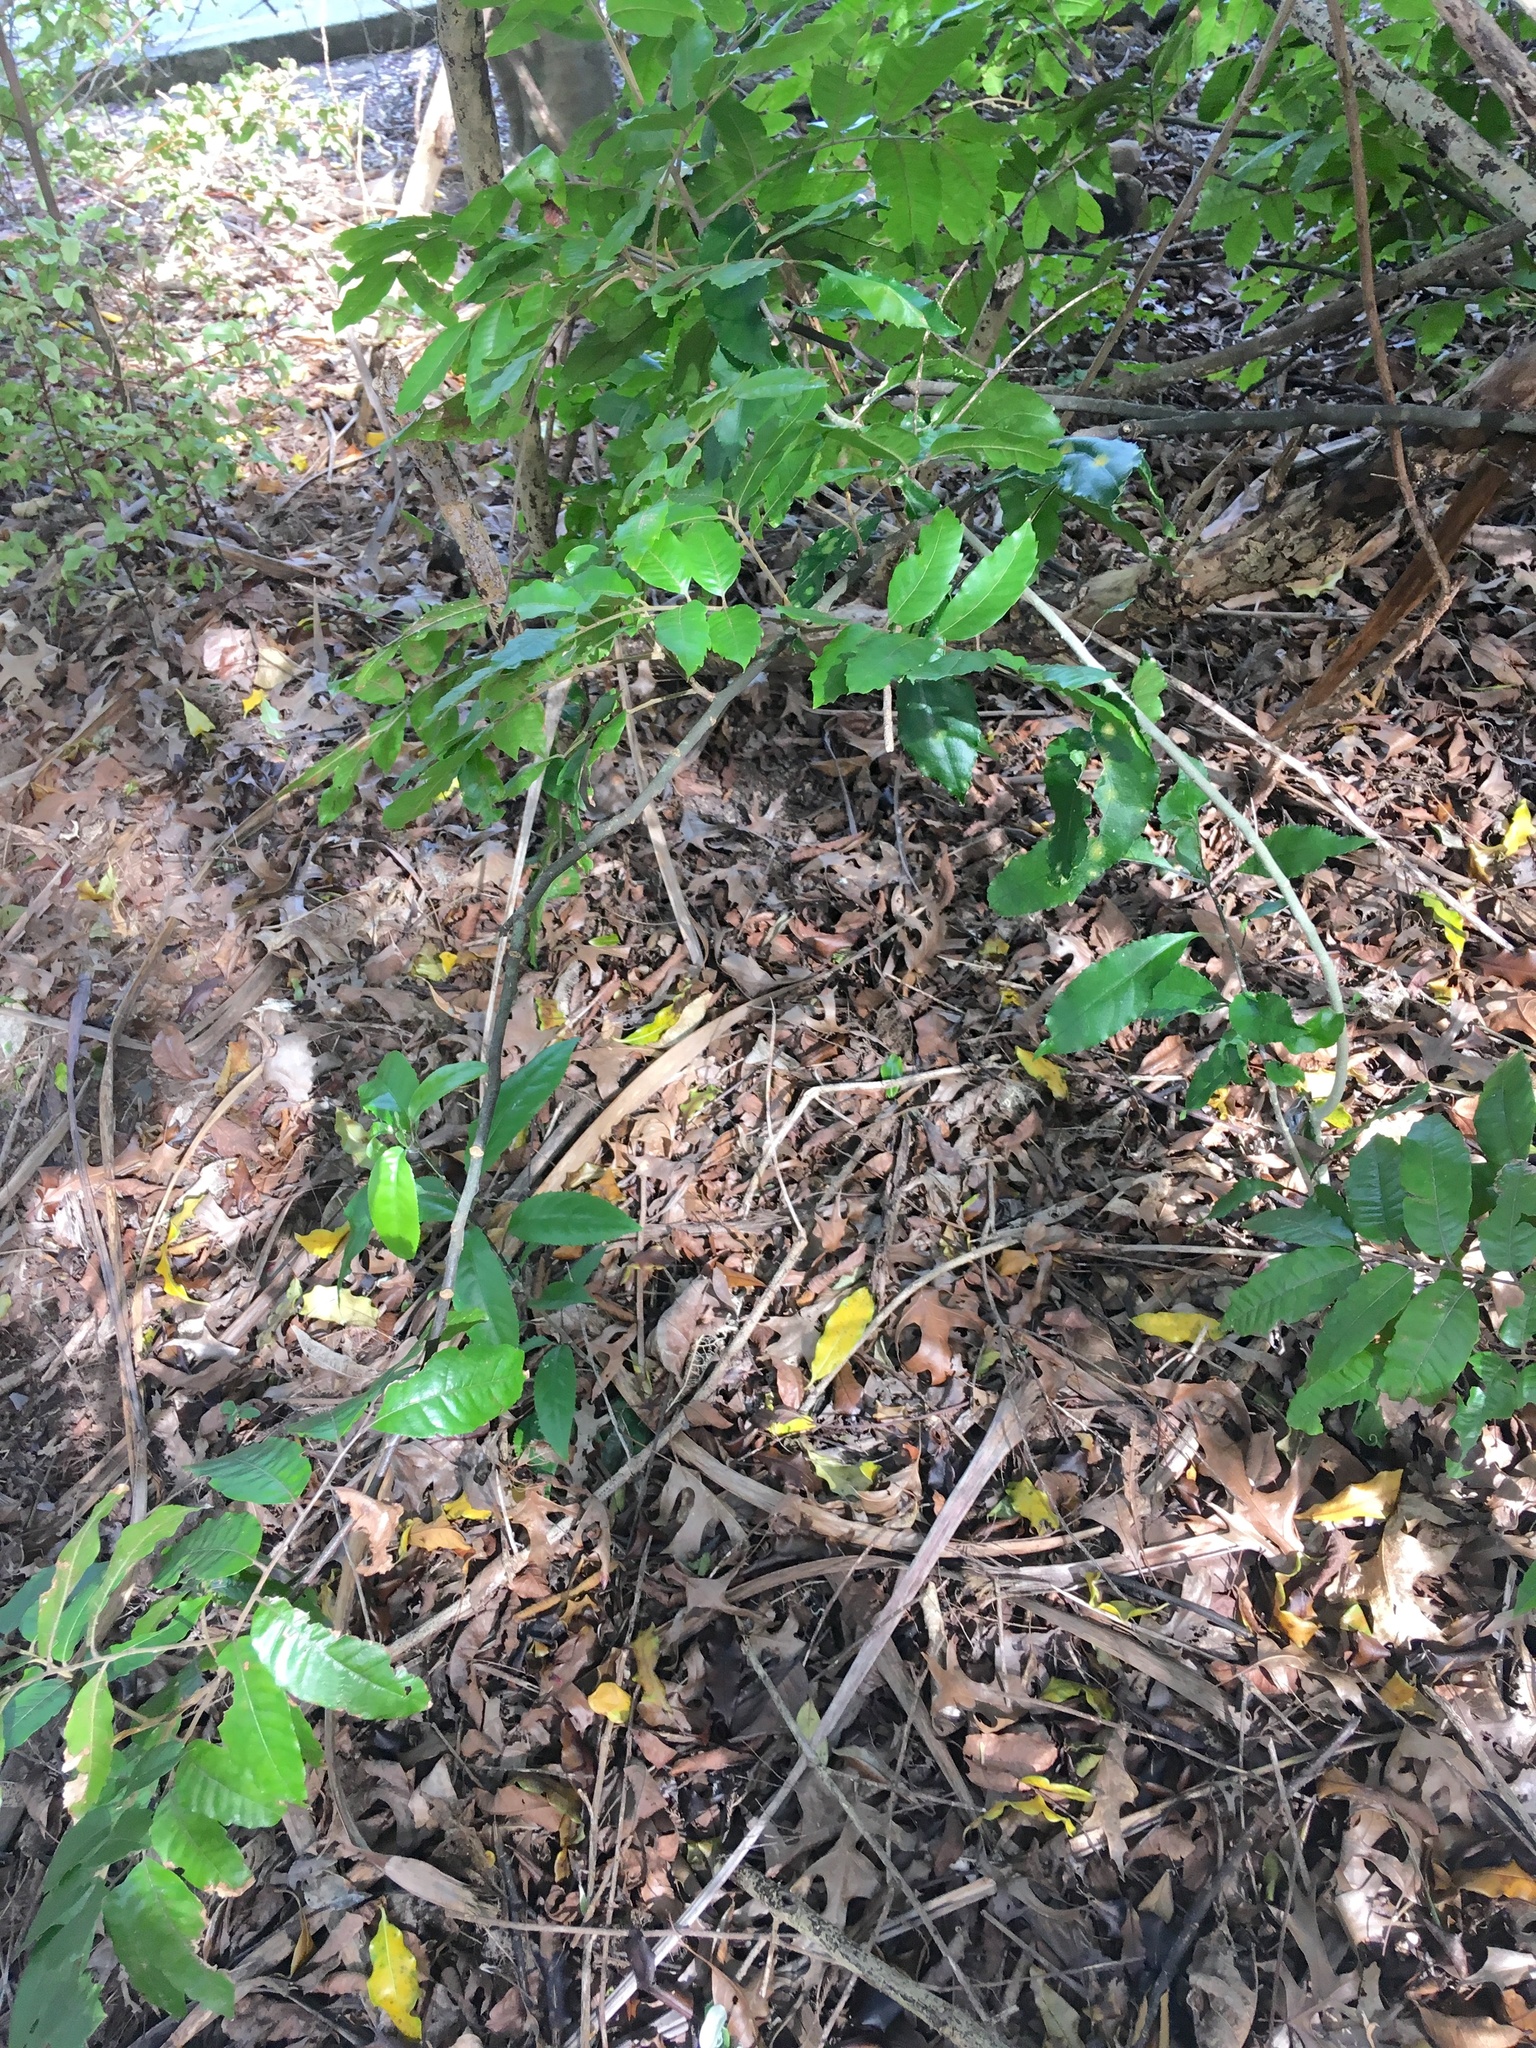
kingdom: Plantae
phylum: Tracheophyta
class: Magnoliopsida
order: Sapindales
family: Sapindaceae
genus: Alectryon
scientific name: Alectryon excelsus
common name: Three kings titoki
